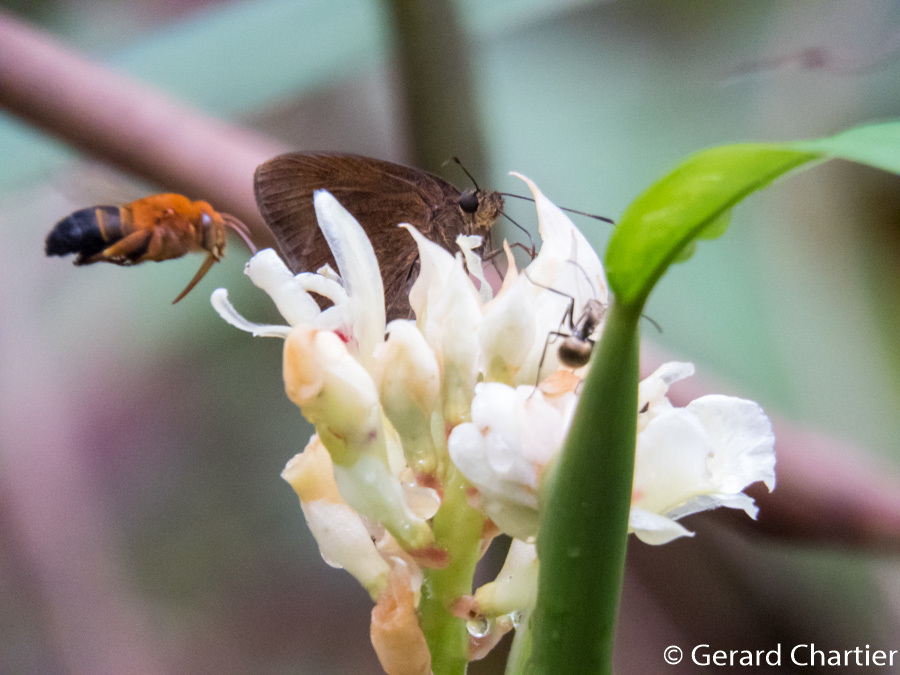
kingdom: Animalia
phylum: Arthropoda
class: Insecta
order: Lepidoptera
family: Hesperiidae
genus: Ancistroides
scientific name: Ancistroides nigrita
